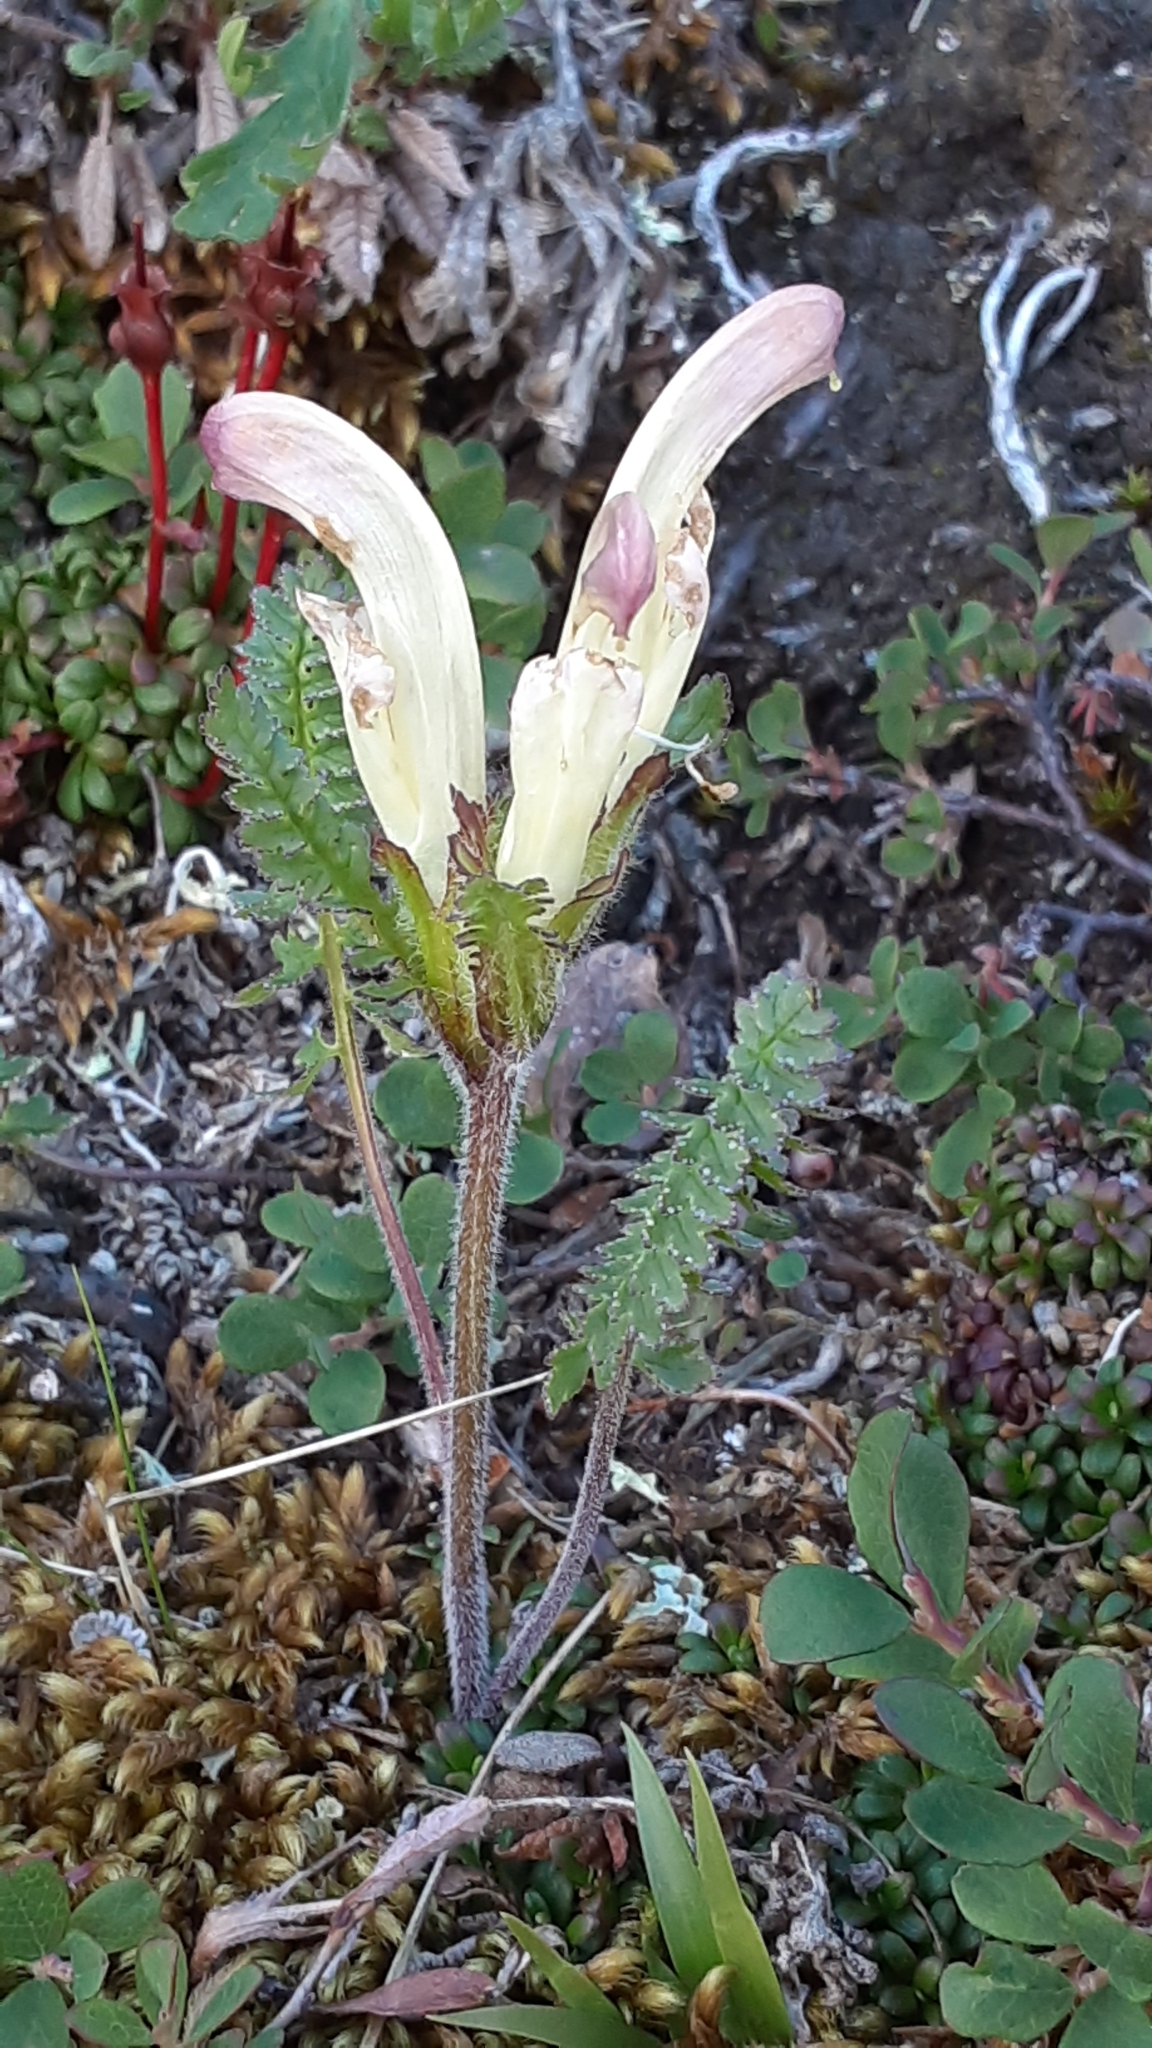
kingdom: Plantae
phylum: Tracheophyta
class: Magnoliopsida
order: Lamiales
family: Orobanchaceae
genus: Pedicularis
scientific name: Pedicularis capitata
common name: Capitate lousewort
